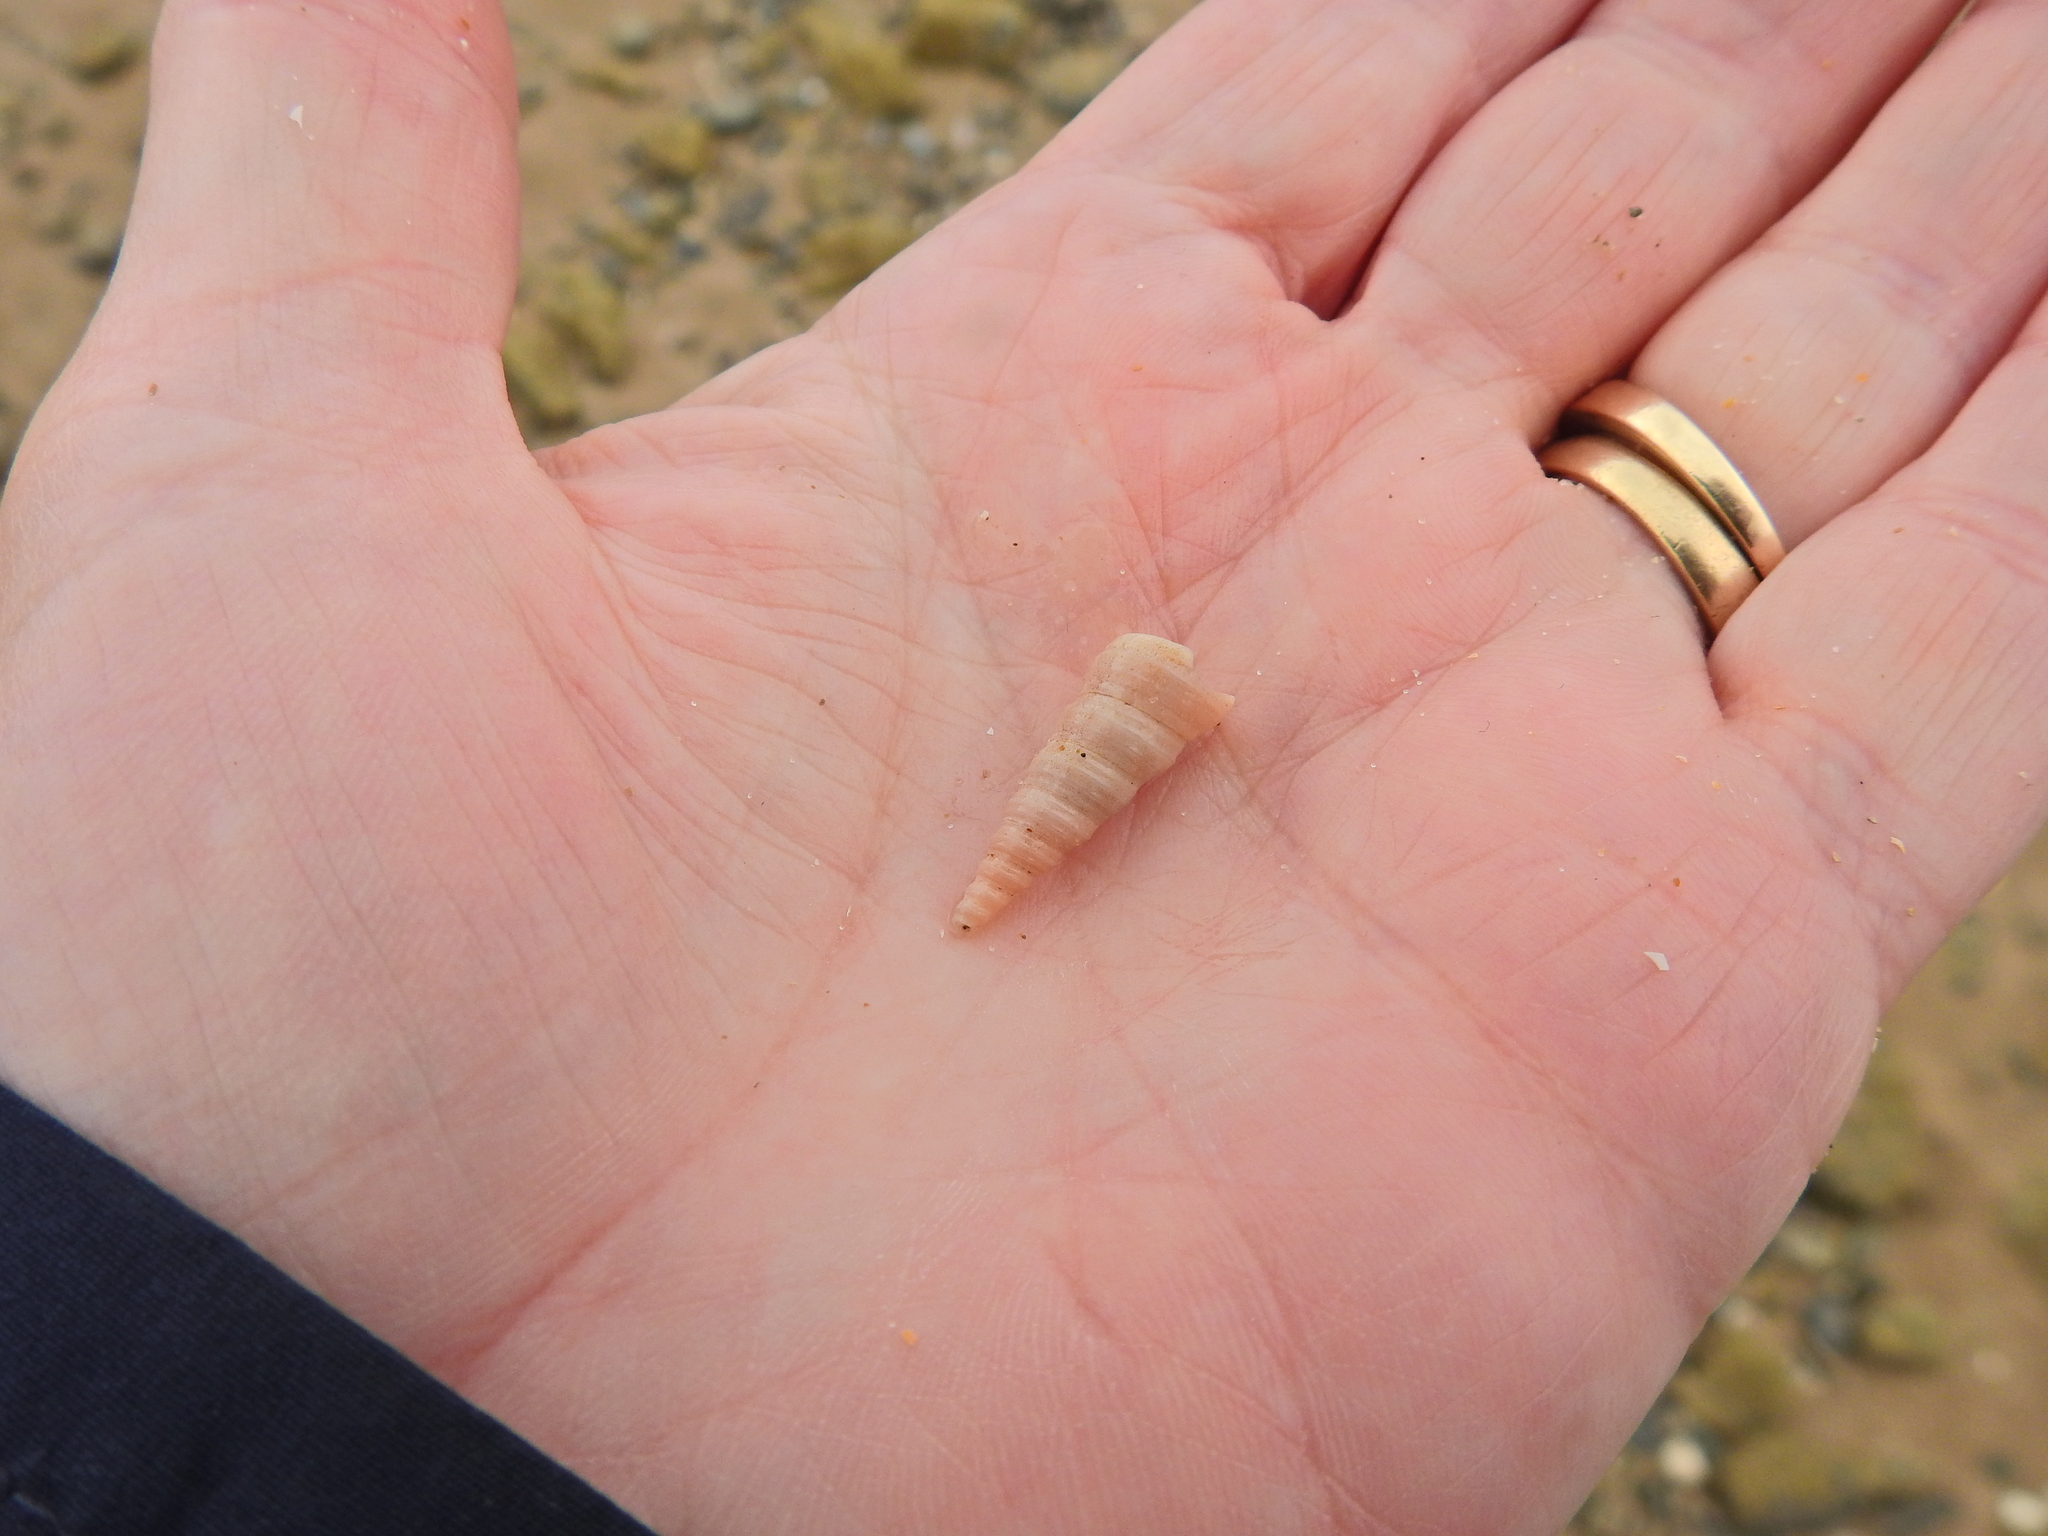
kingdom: Animalia
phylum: Mollusca
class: Gastropoda
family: Turritellidae
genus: Turritellinella
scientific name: Turritellinella tricarinata
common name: Auger shell
